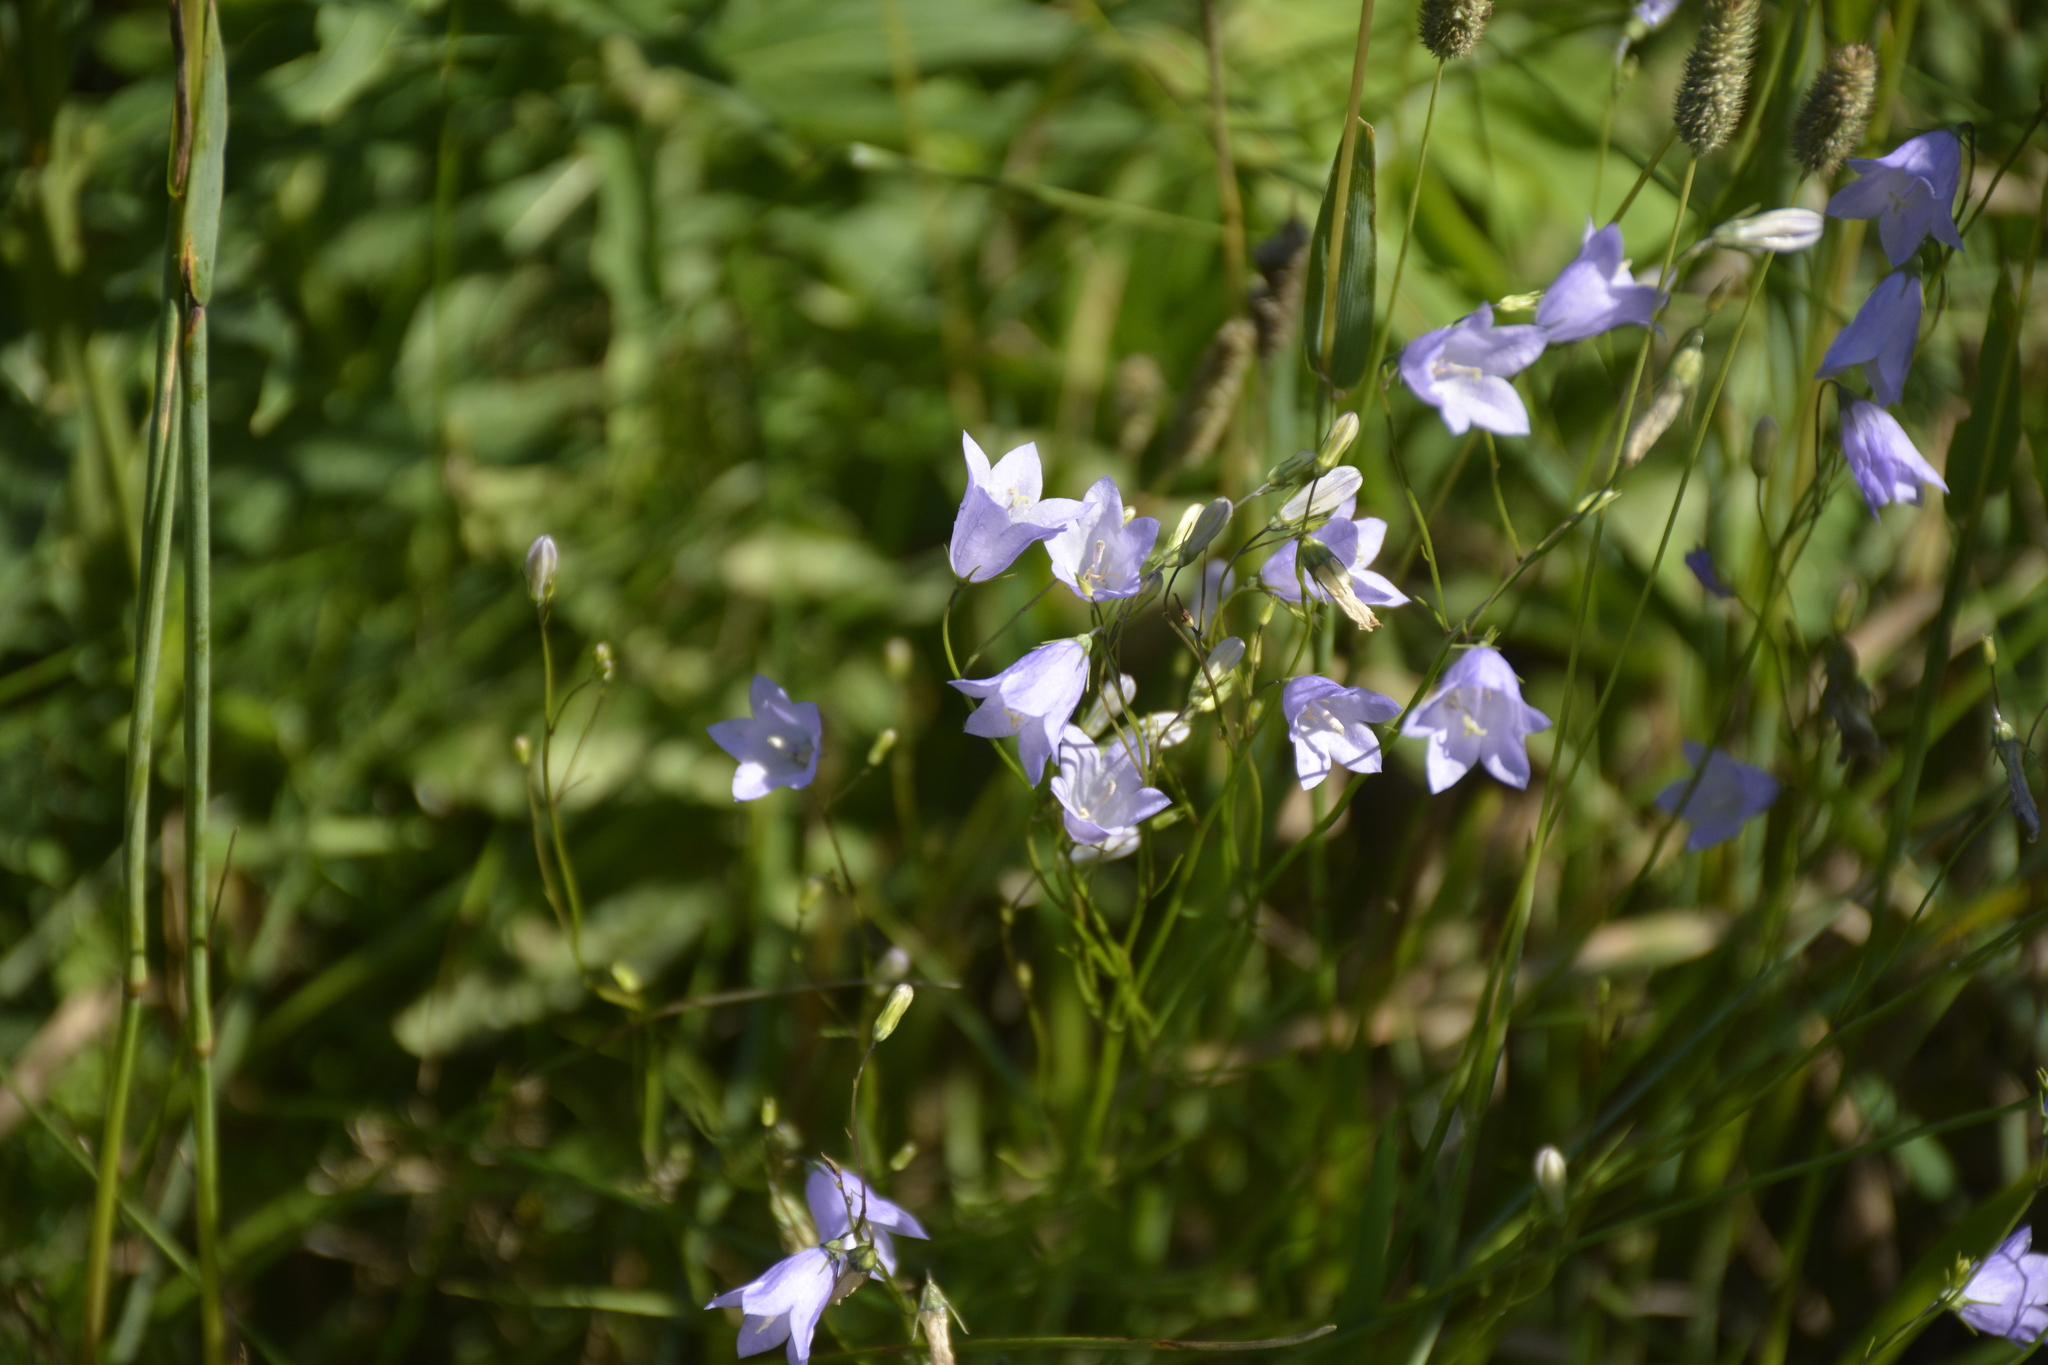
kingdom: Plantae
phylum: Tracheophyta
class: Magnoliopsida
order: Asterales
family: Campanulaceae
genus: Campanula
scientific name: Campanula rotundifolia
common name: Harebell
